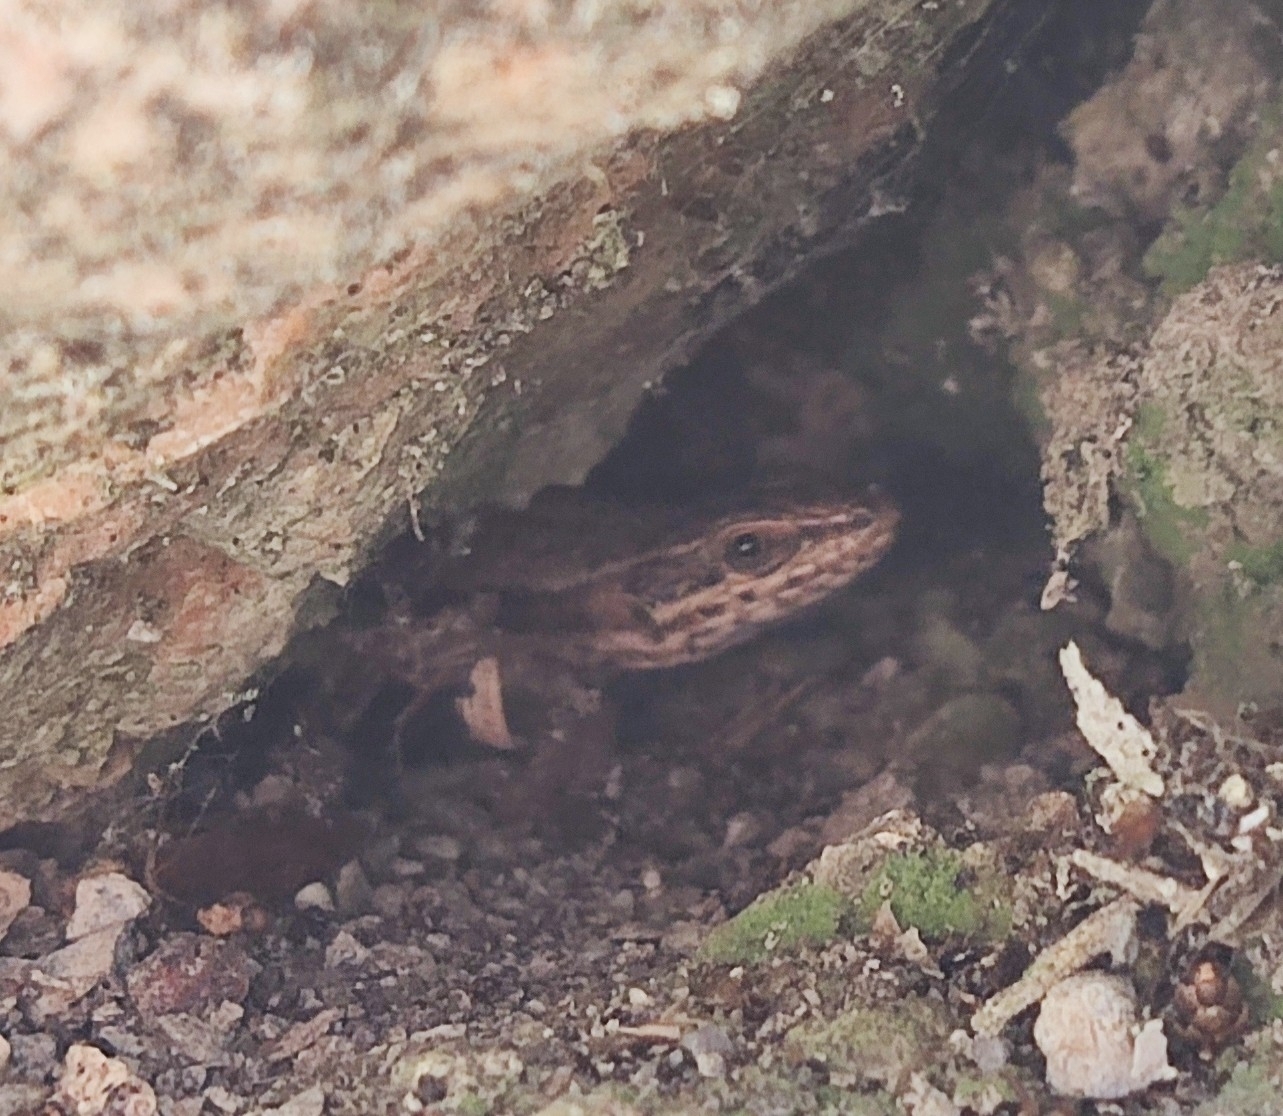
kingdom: Animalia
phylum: Chordata
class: Squamata
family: Lacertidae
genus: Podarcis
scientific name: Podarcis muralis
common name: Common wall lizard
